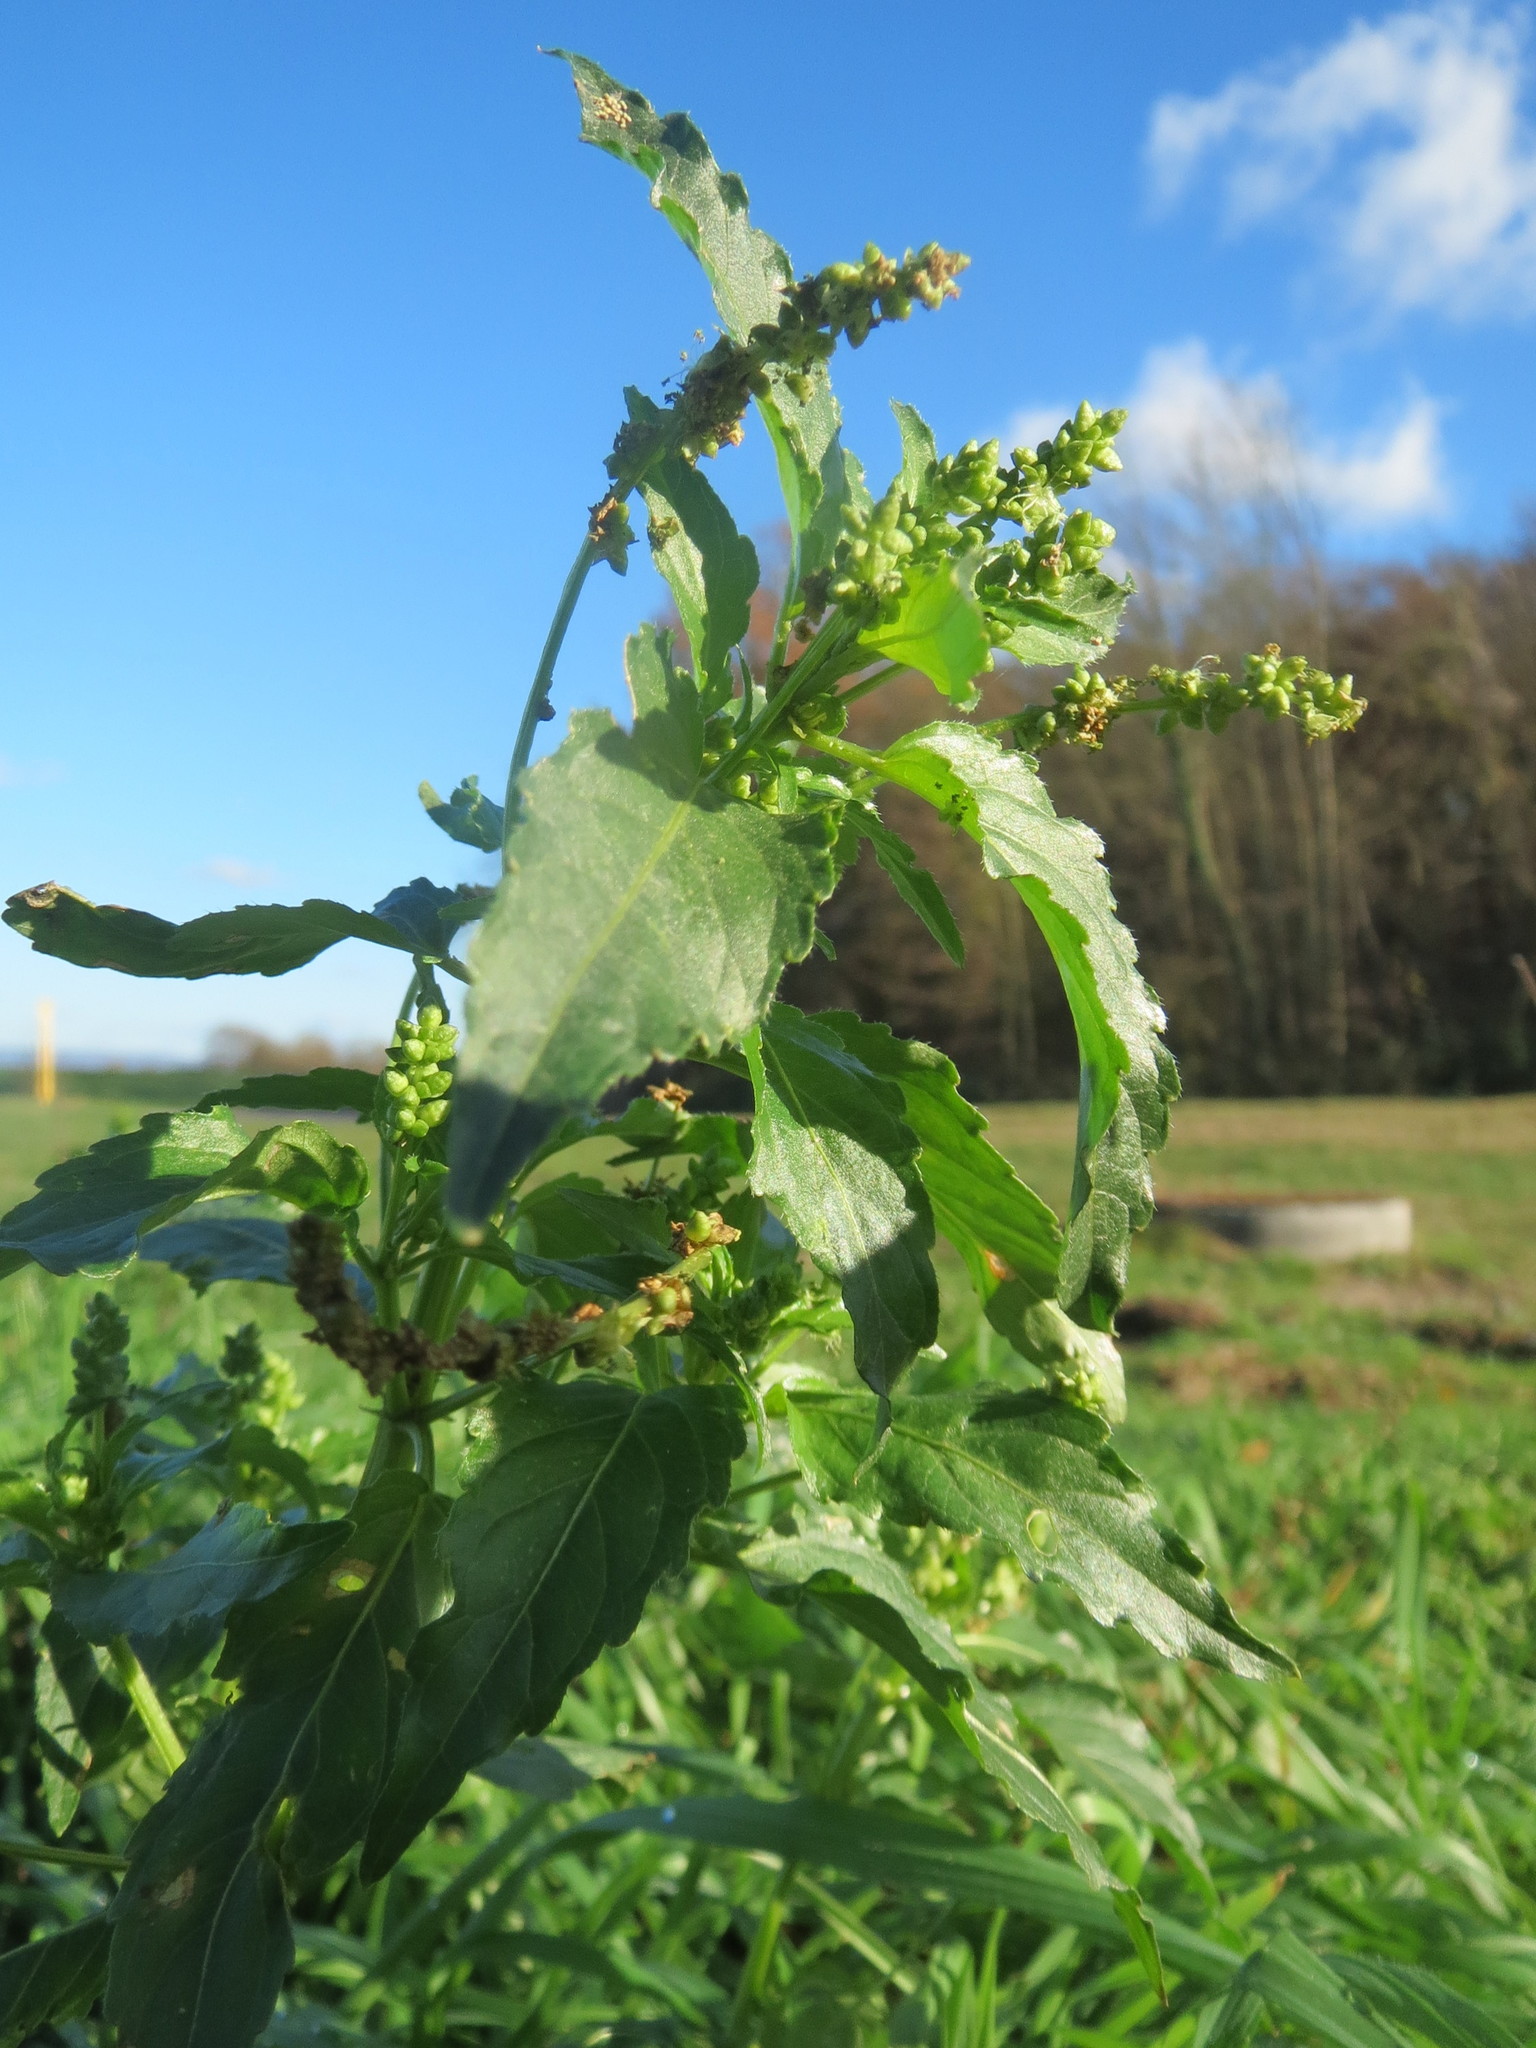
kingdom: Plantae
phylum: Tracheophyta
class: Magnoliopsida
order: Malpighiales
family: Euphorbiaceae
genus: Mercurialis
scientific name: Mercurialis annua
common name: Annual mercury
